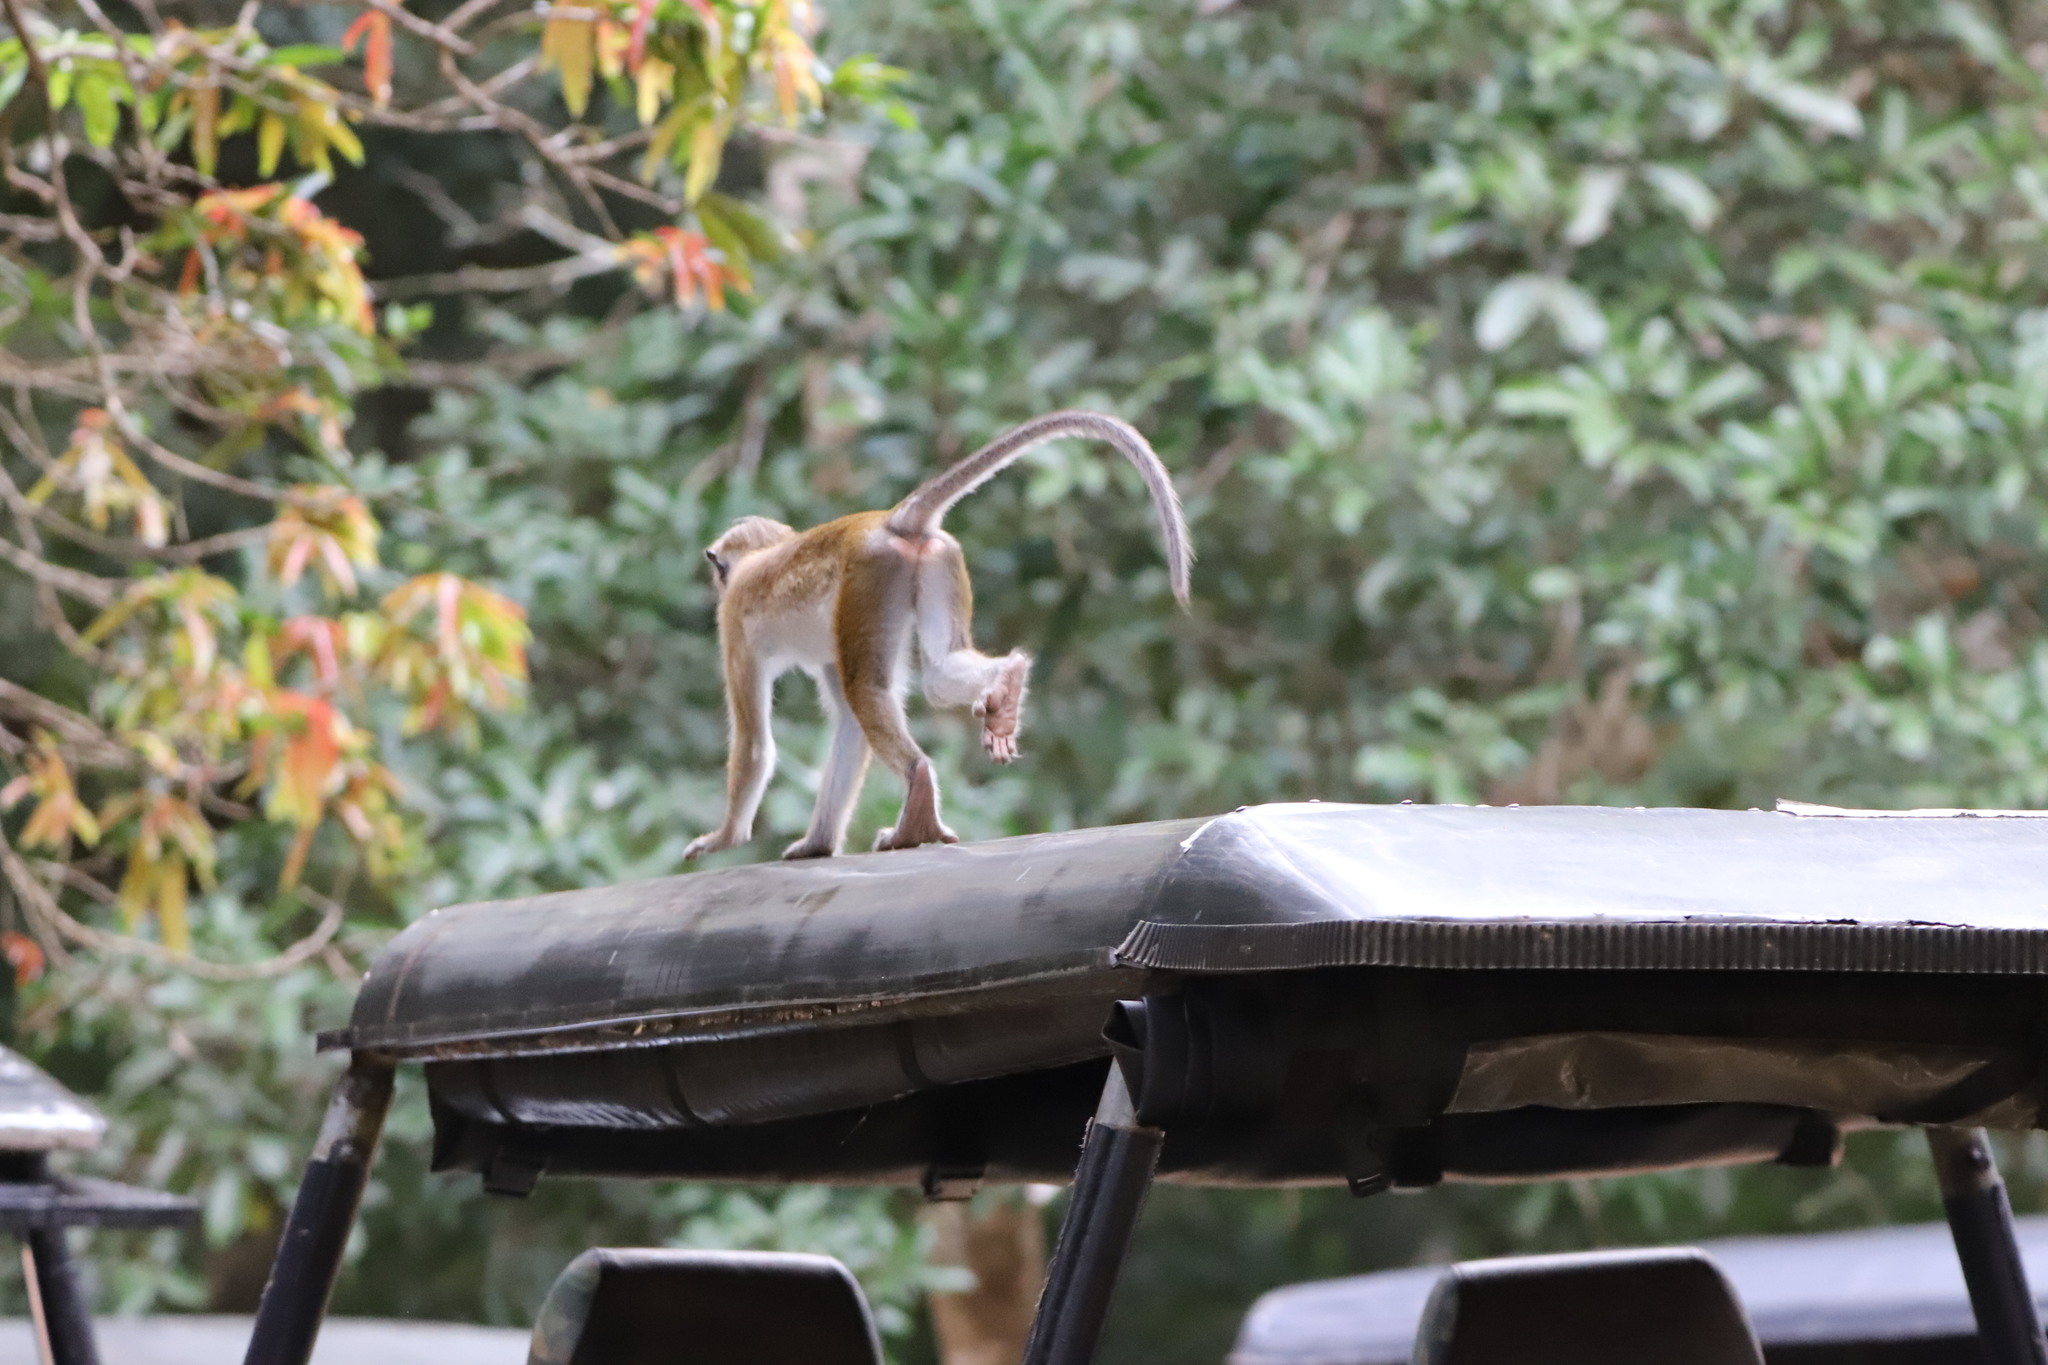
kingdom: Animalia
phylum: Chordata
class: Mammalia
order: Primates
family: Cercopithecidae
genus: Macaca
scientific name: Macaca sinica
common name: Toque macaque
